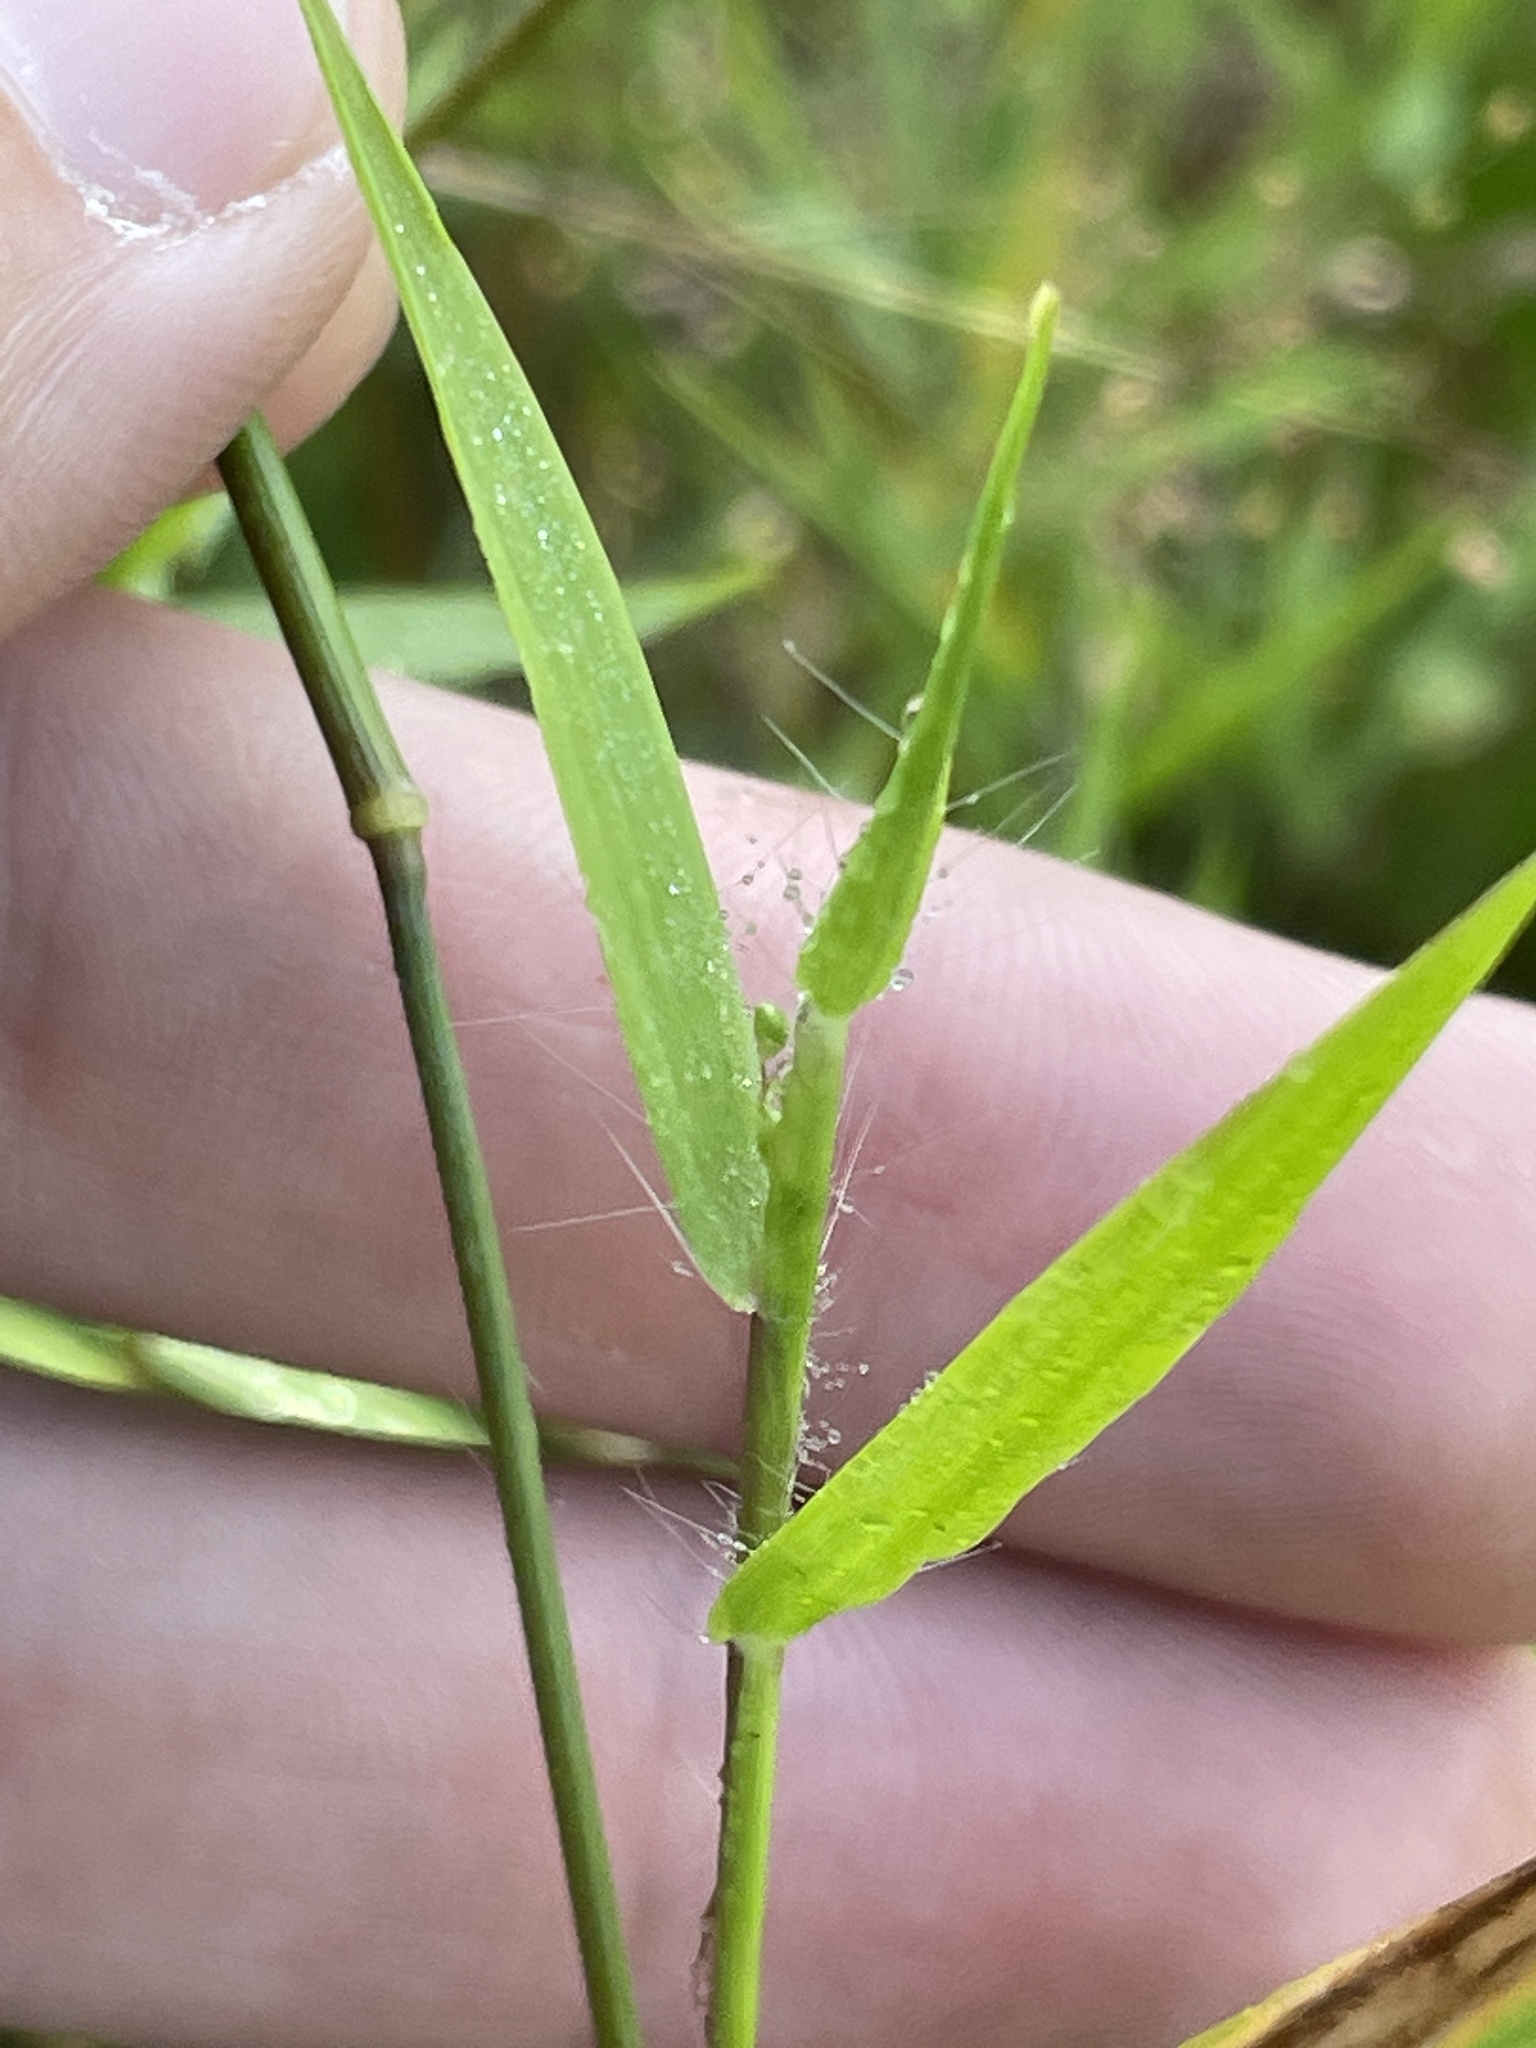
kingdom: Plantae
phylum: Tracheophyta
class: Liliopsida
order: Poales
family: Poaceae
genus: Dichanthelium
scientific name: Dichanthelium acuminatum
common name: Hairy panic grass
